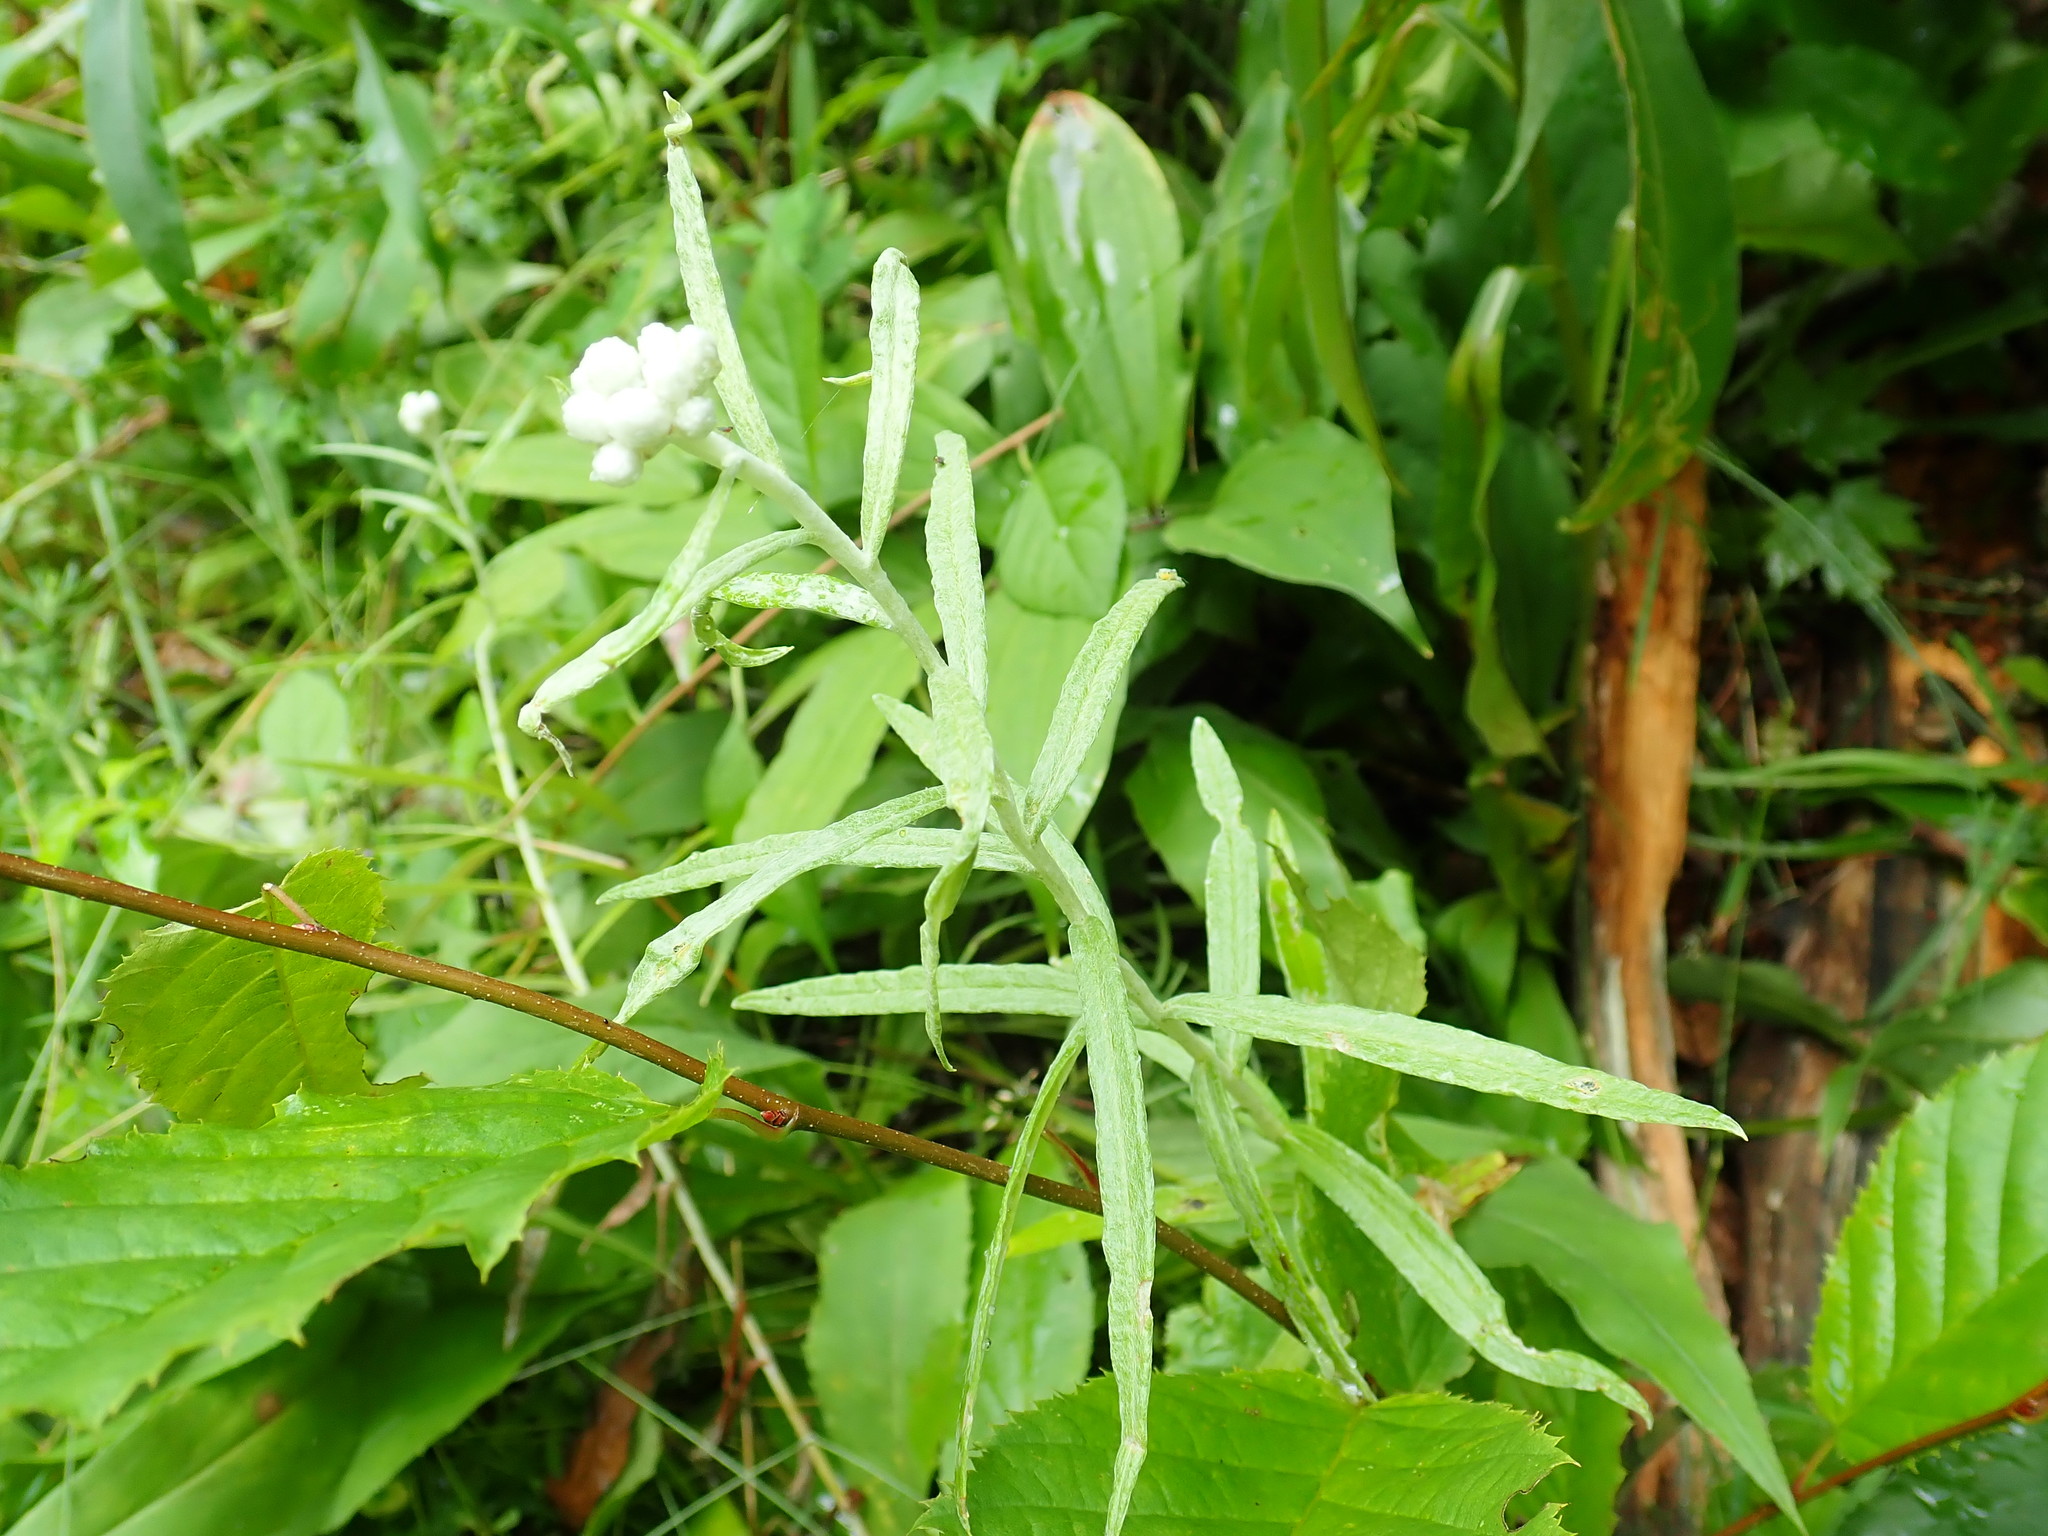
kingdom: Plantae
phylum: Tracheophyta
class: Magnoliopsida
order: Asterales
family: Asteraceae
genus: Anaphalis
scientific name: Anaphalis margaritacea
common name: Pearly everlasting
